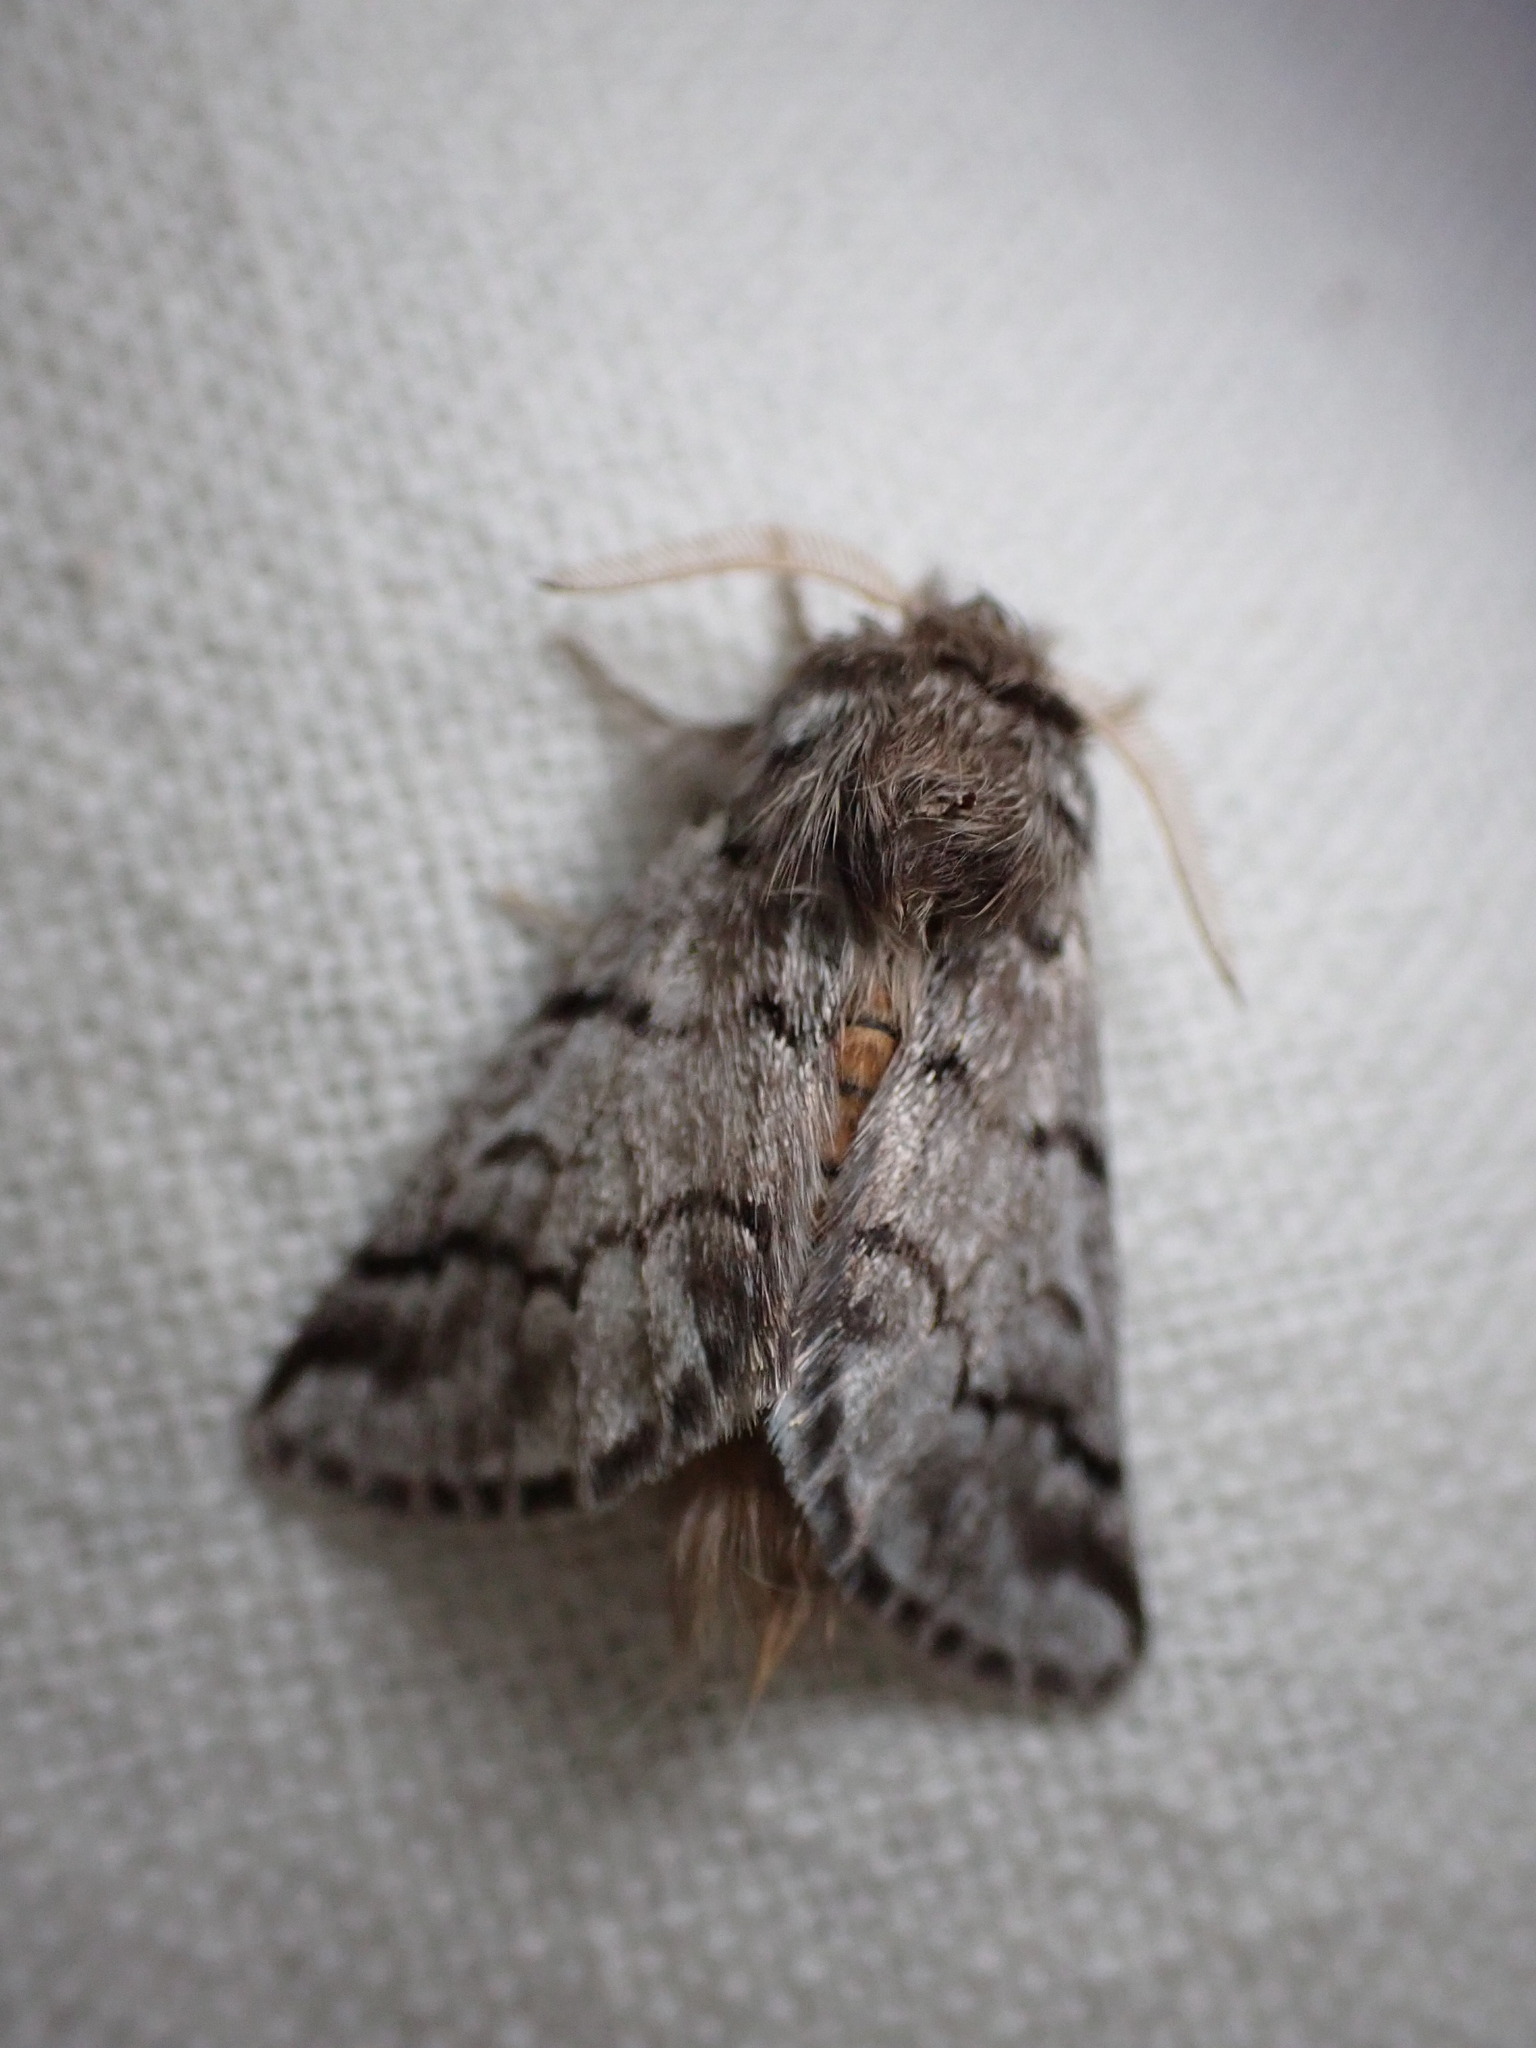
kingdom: Animalia
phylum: Arthropoda
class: Insecta
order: Lepidoptera
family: Notodontidae
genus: Thaumetopoea
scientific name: Thaumetopoea pityocampa
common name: Pine processionary
